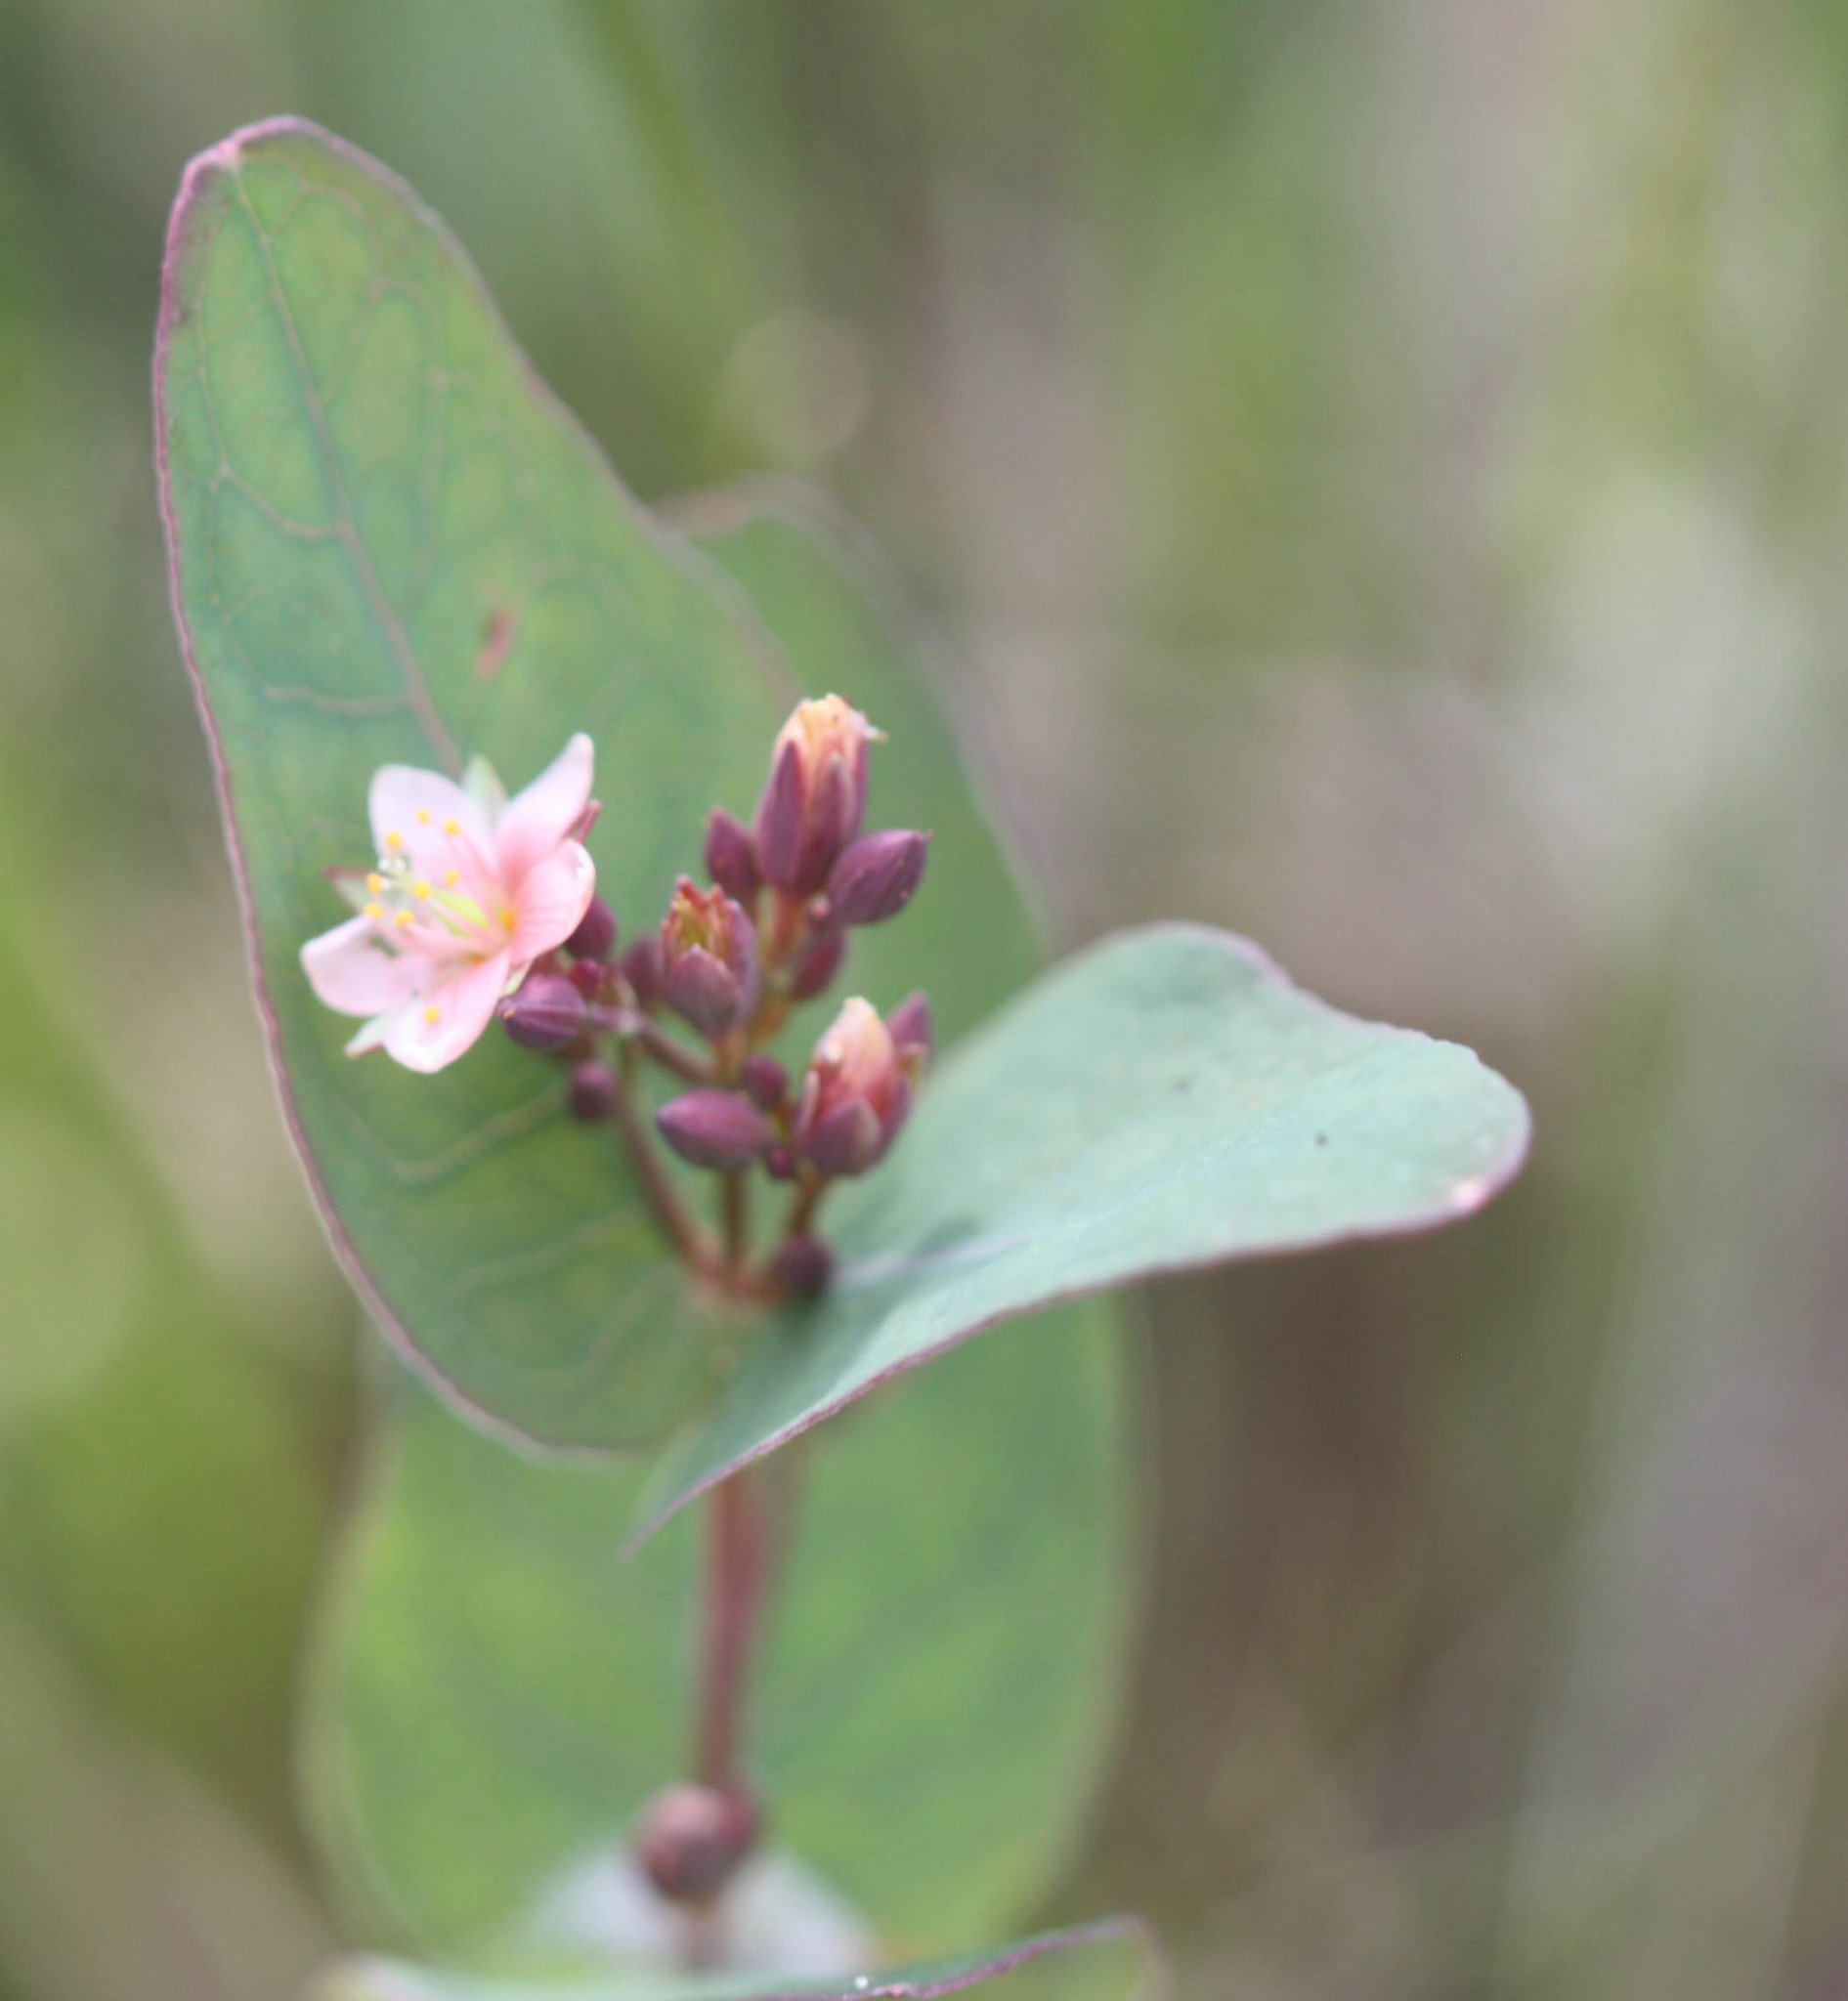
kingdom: Plantae
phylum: Tracheophyta
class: Magnoliopsida
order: Malpighiales
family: Hypericaceae
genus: Triadenum
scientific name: Triadenum virginicum
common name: Marsh st. john's-wort
